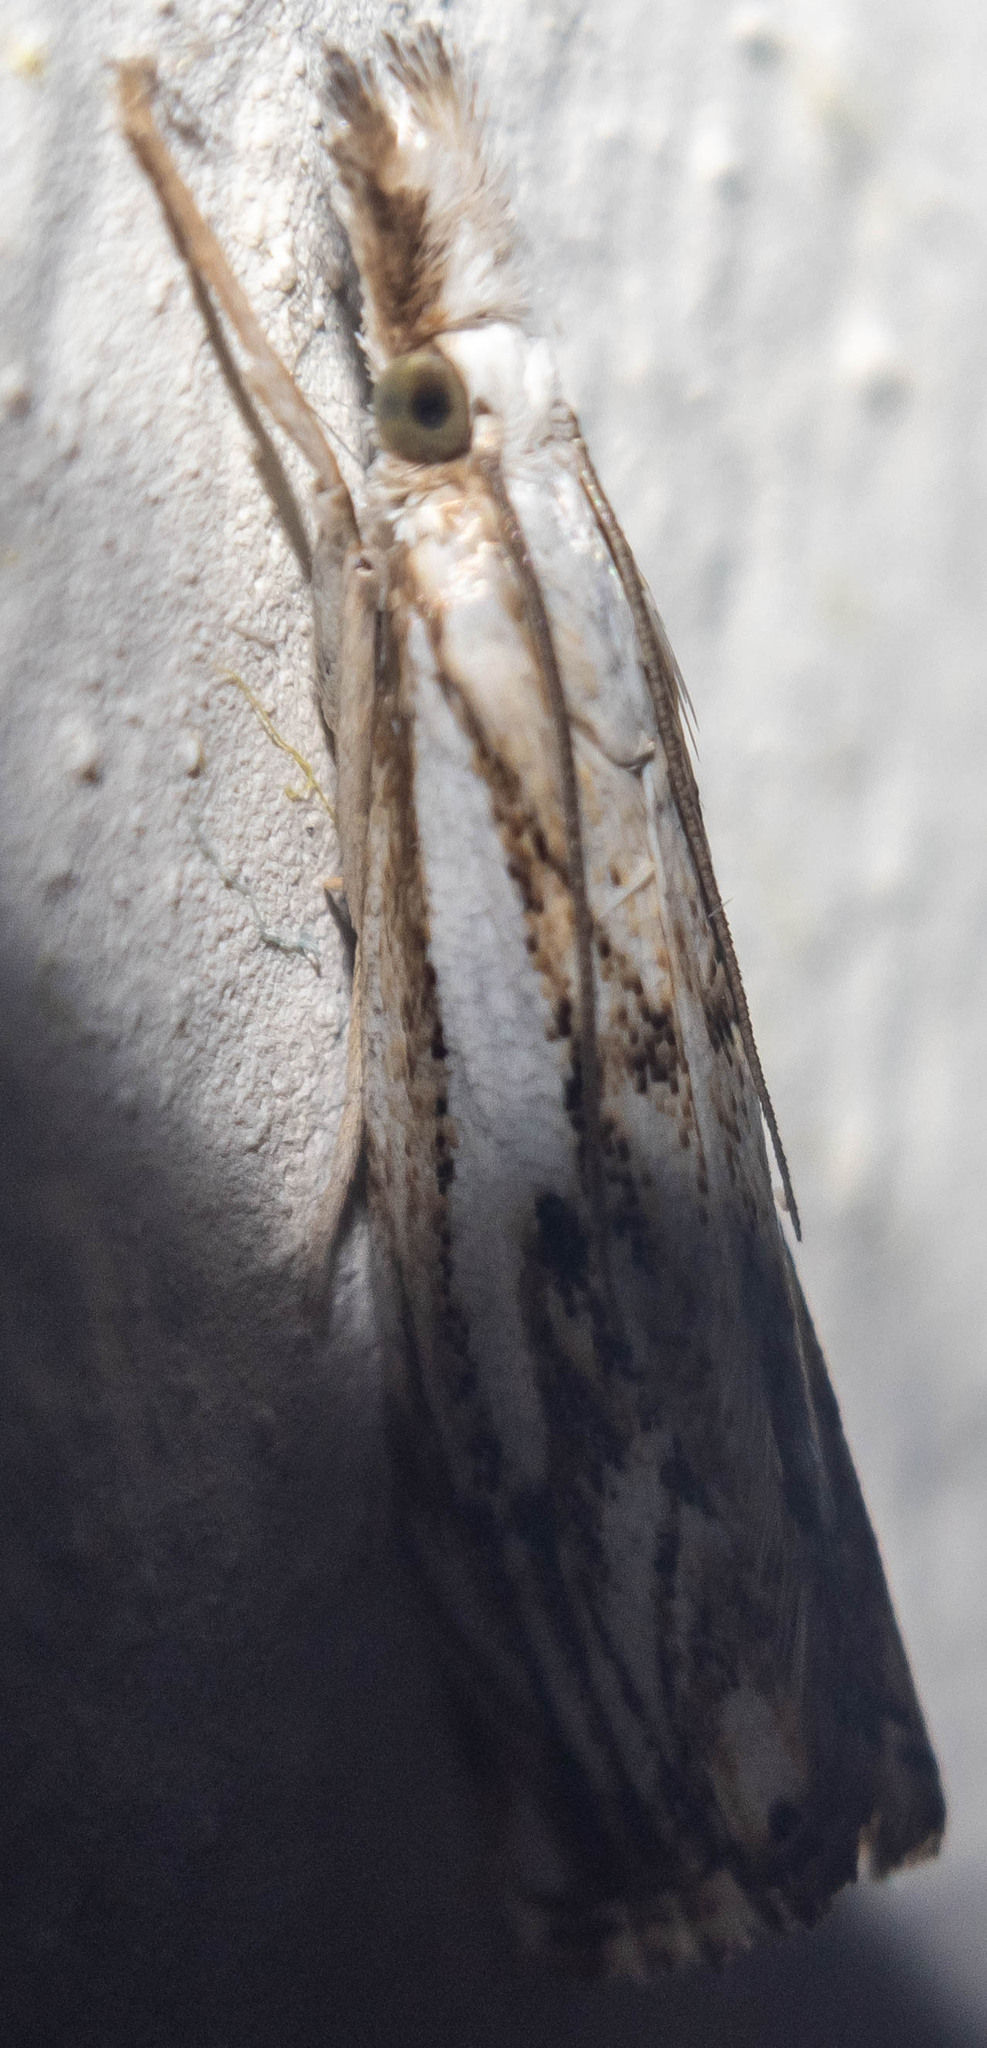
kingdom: Animalia
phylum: Arthropoda
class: Insecta
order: Lepidoptera
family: Crambidae
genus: Catoptria
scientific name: Catoptria falsella
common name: Chequered grass-veneer
